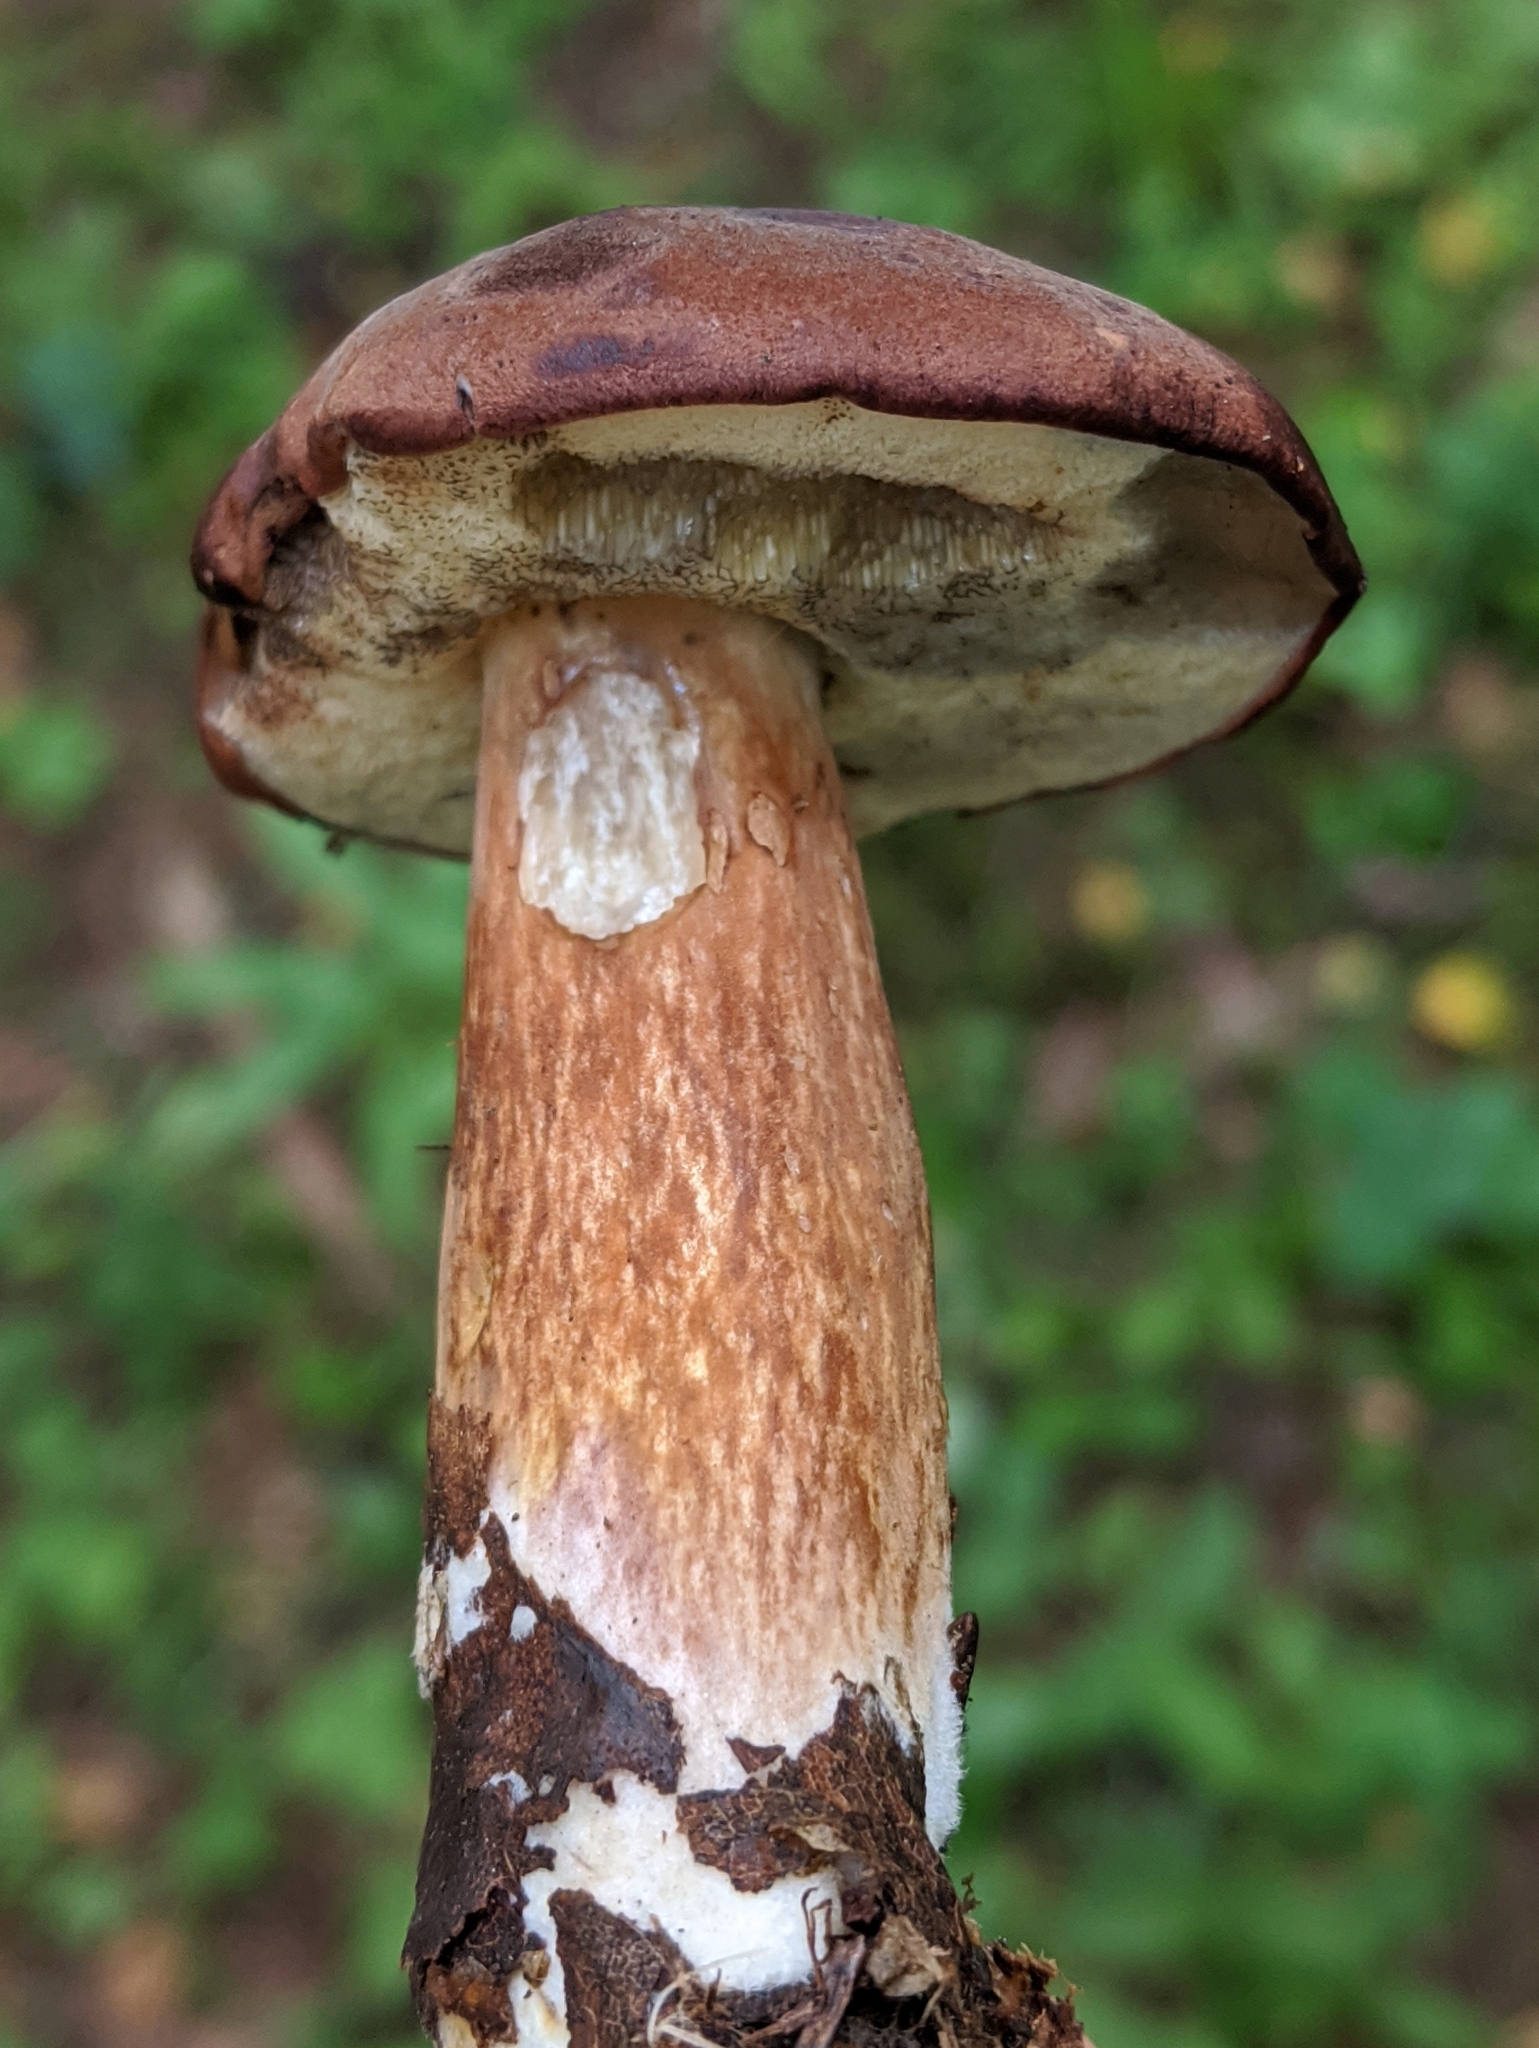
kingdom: Fungi
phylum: Basidiomycota
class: Agaricomycetes
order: Boletales
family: Boletaceae
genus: Imleria
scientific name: Imleria badia
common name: Bay bolete
